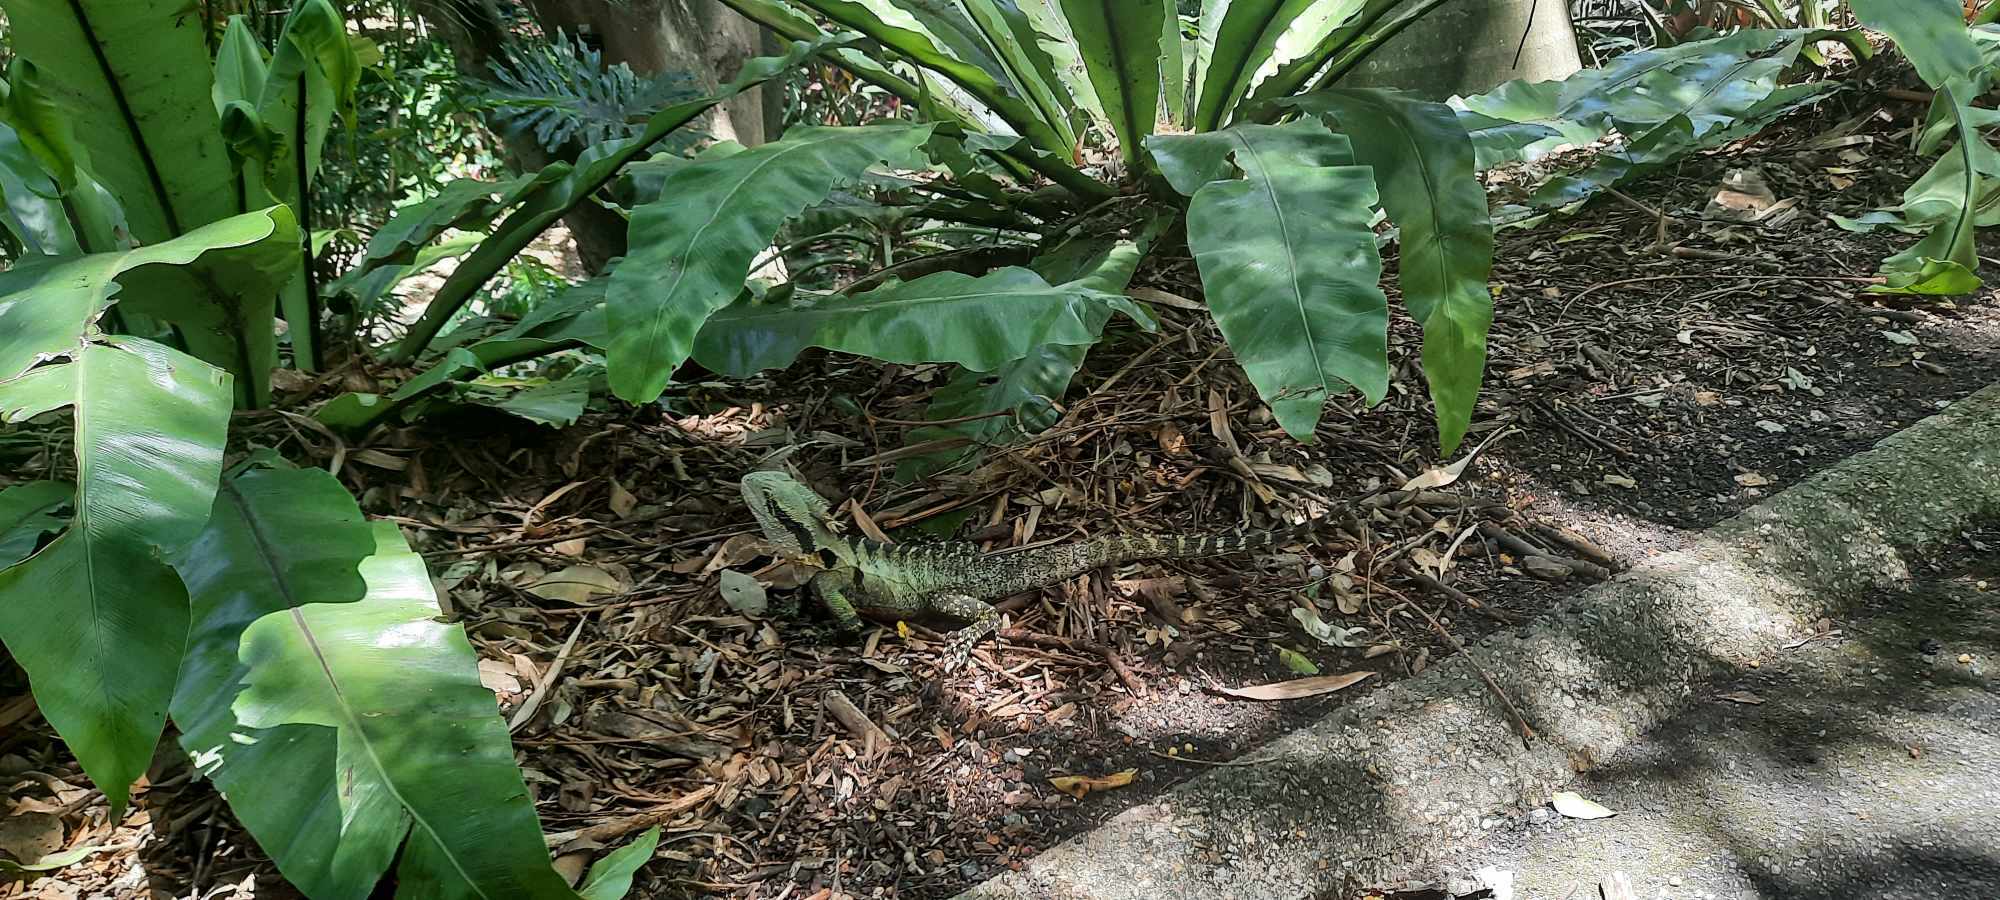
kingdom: Animalia
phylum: Chordata
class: Squamata
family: Agamidae
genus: Intellagama
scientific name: Intellagama lesueurii
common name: Eastern water dragon
